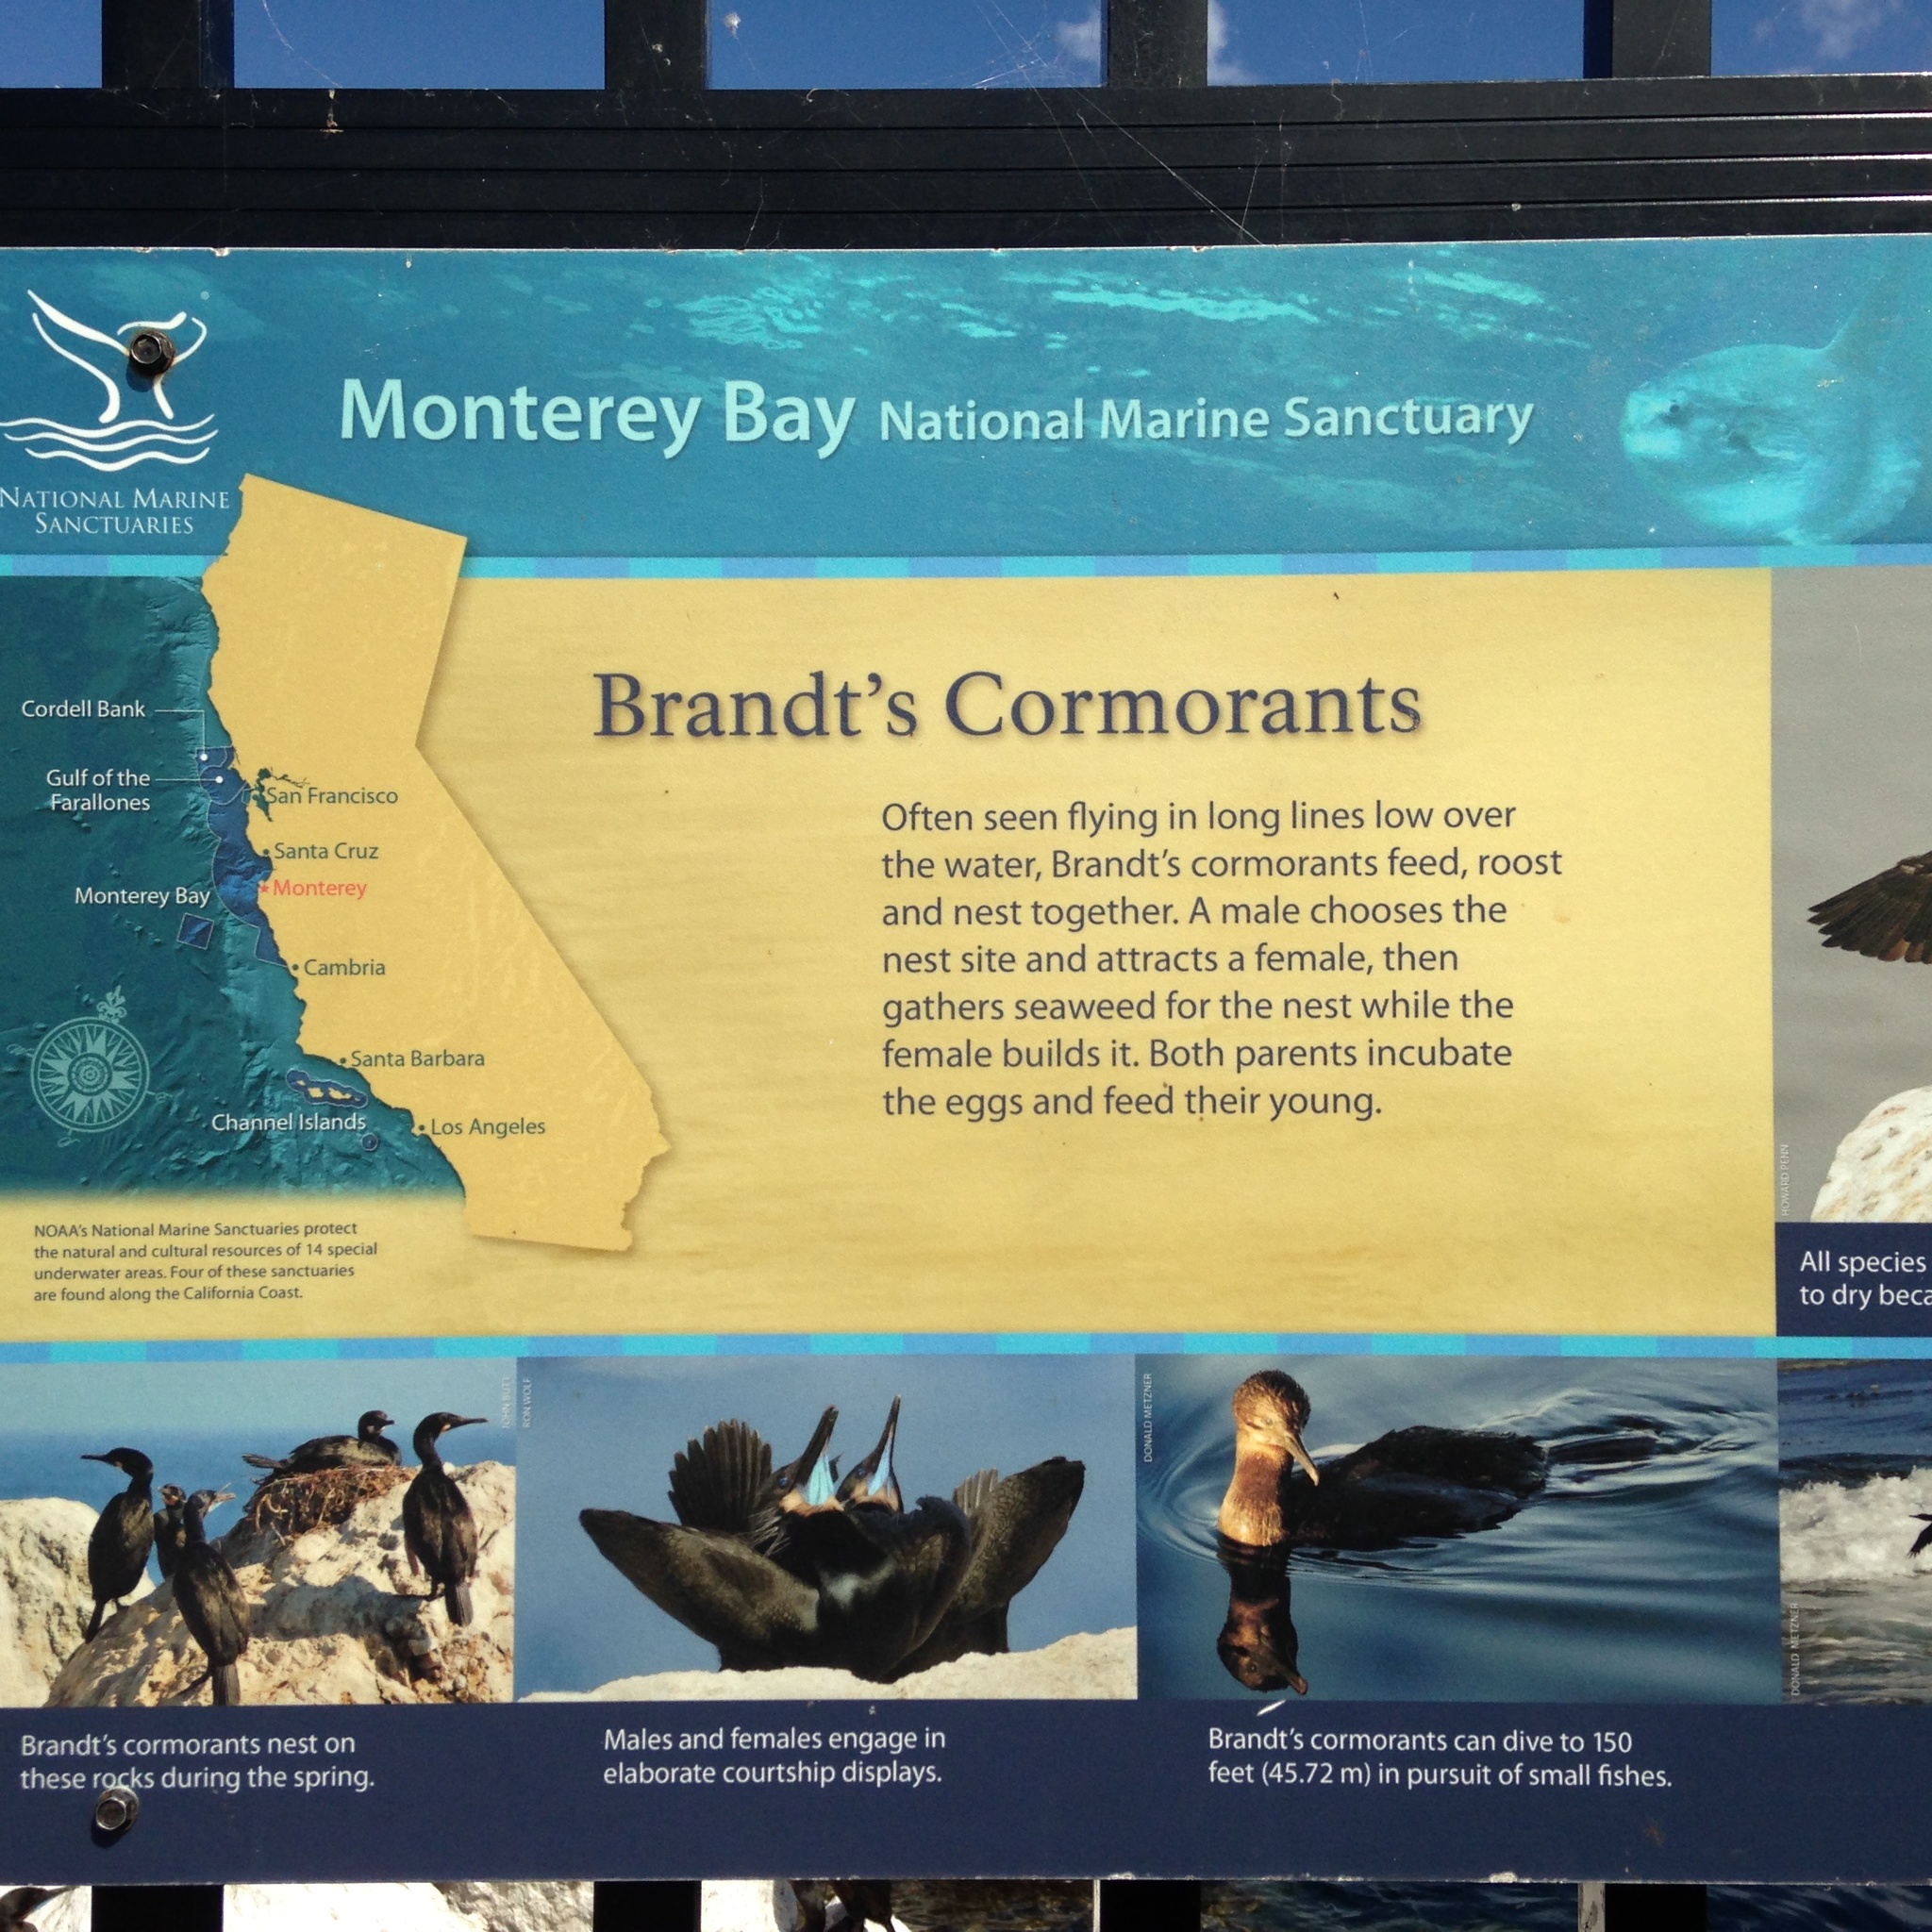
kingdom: Animalia
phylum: Chordata
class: Aves
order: Suliformes
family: Phalacrocoracidae
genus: Urile
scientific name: Urile penicillatus
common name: Brandt's cormorant
